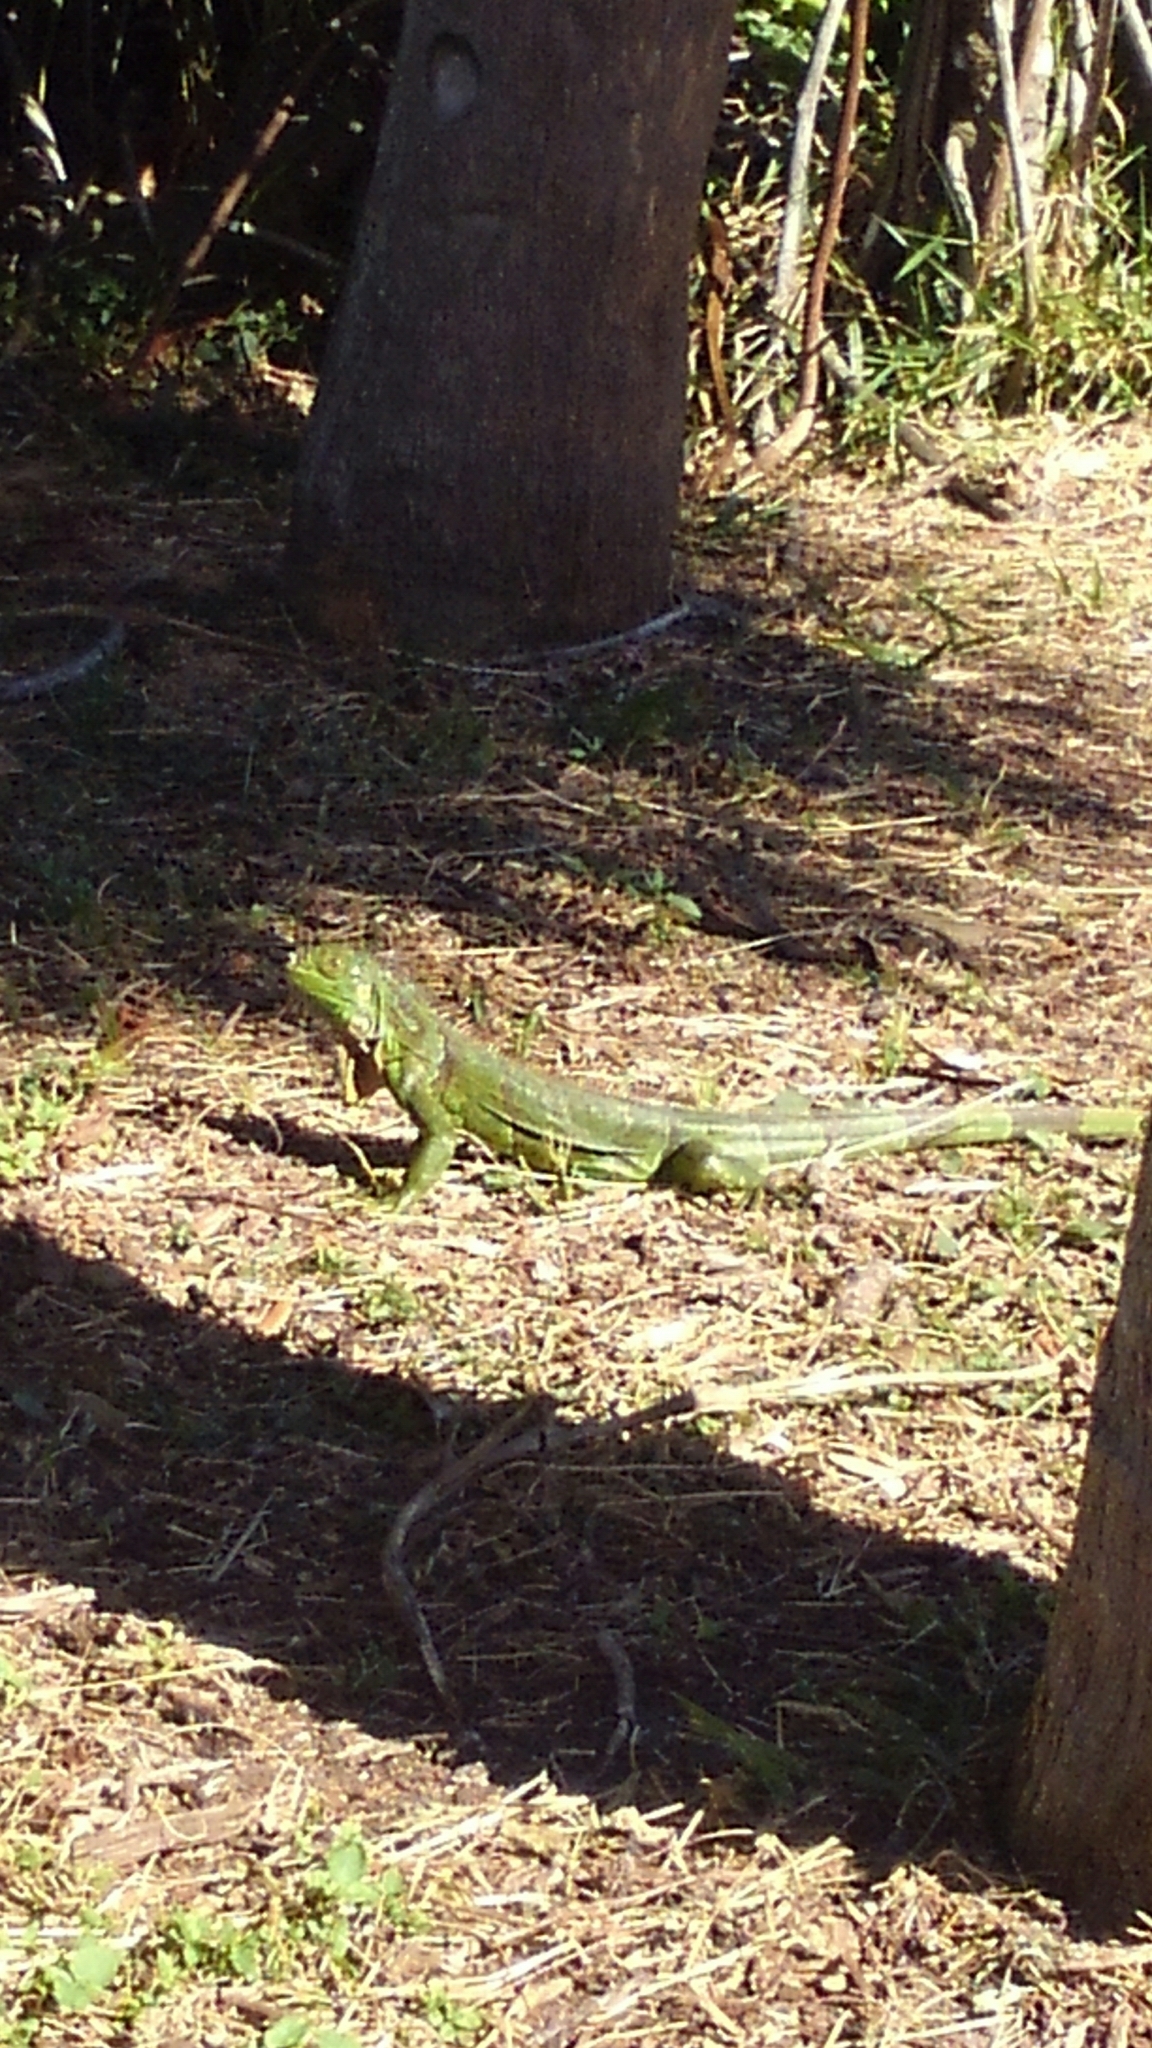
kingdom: Animalia
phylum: Chordata
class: Squamata
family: Iguanidae
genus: Iguana
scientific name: Iguana iguana
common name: Green iguana
